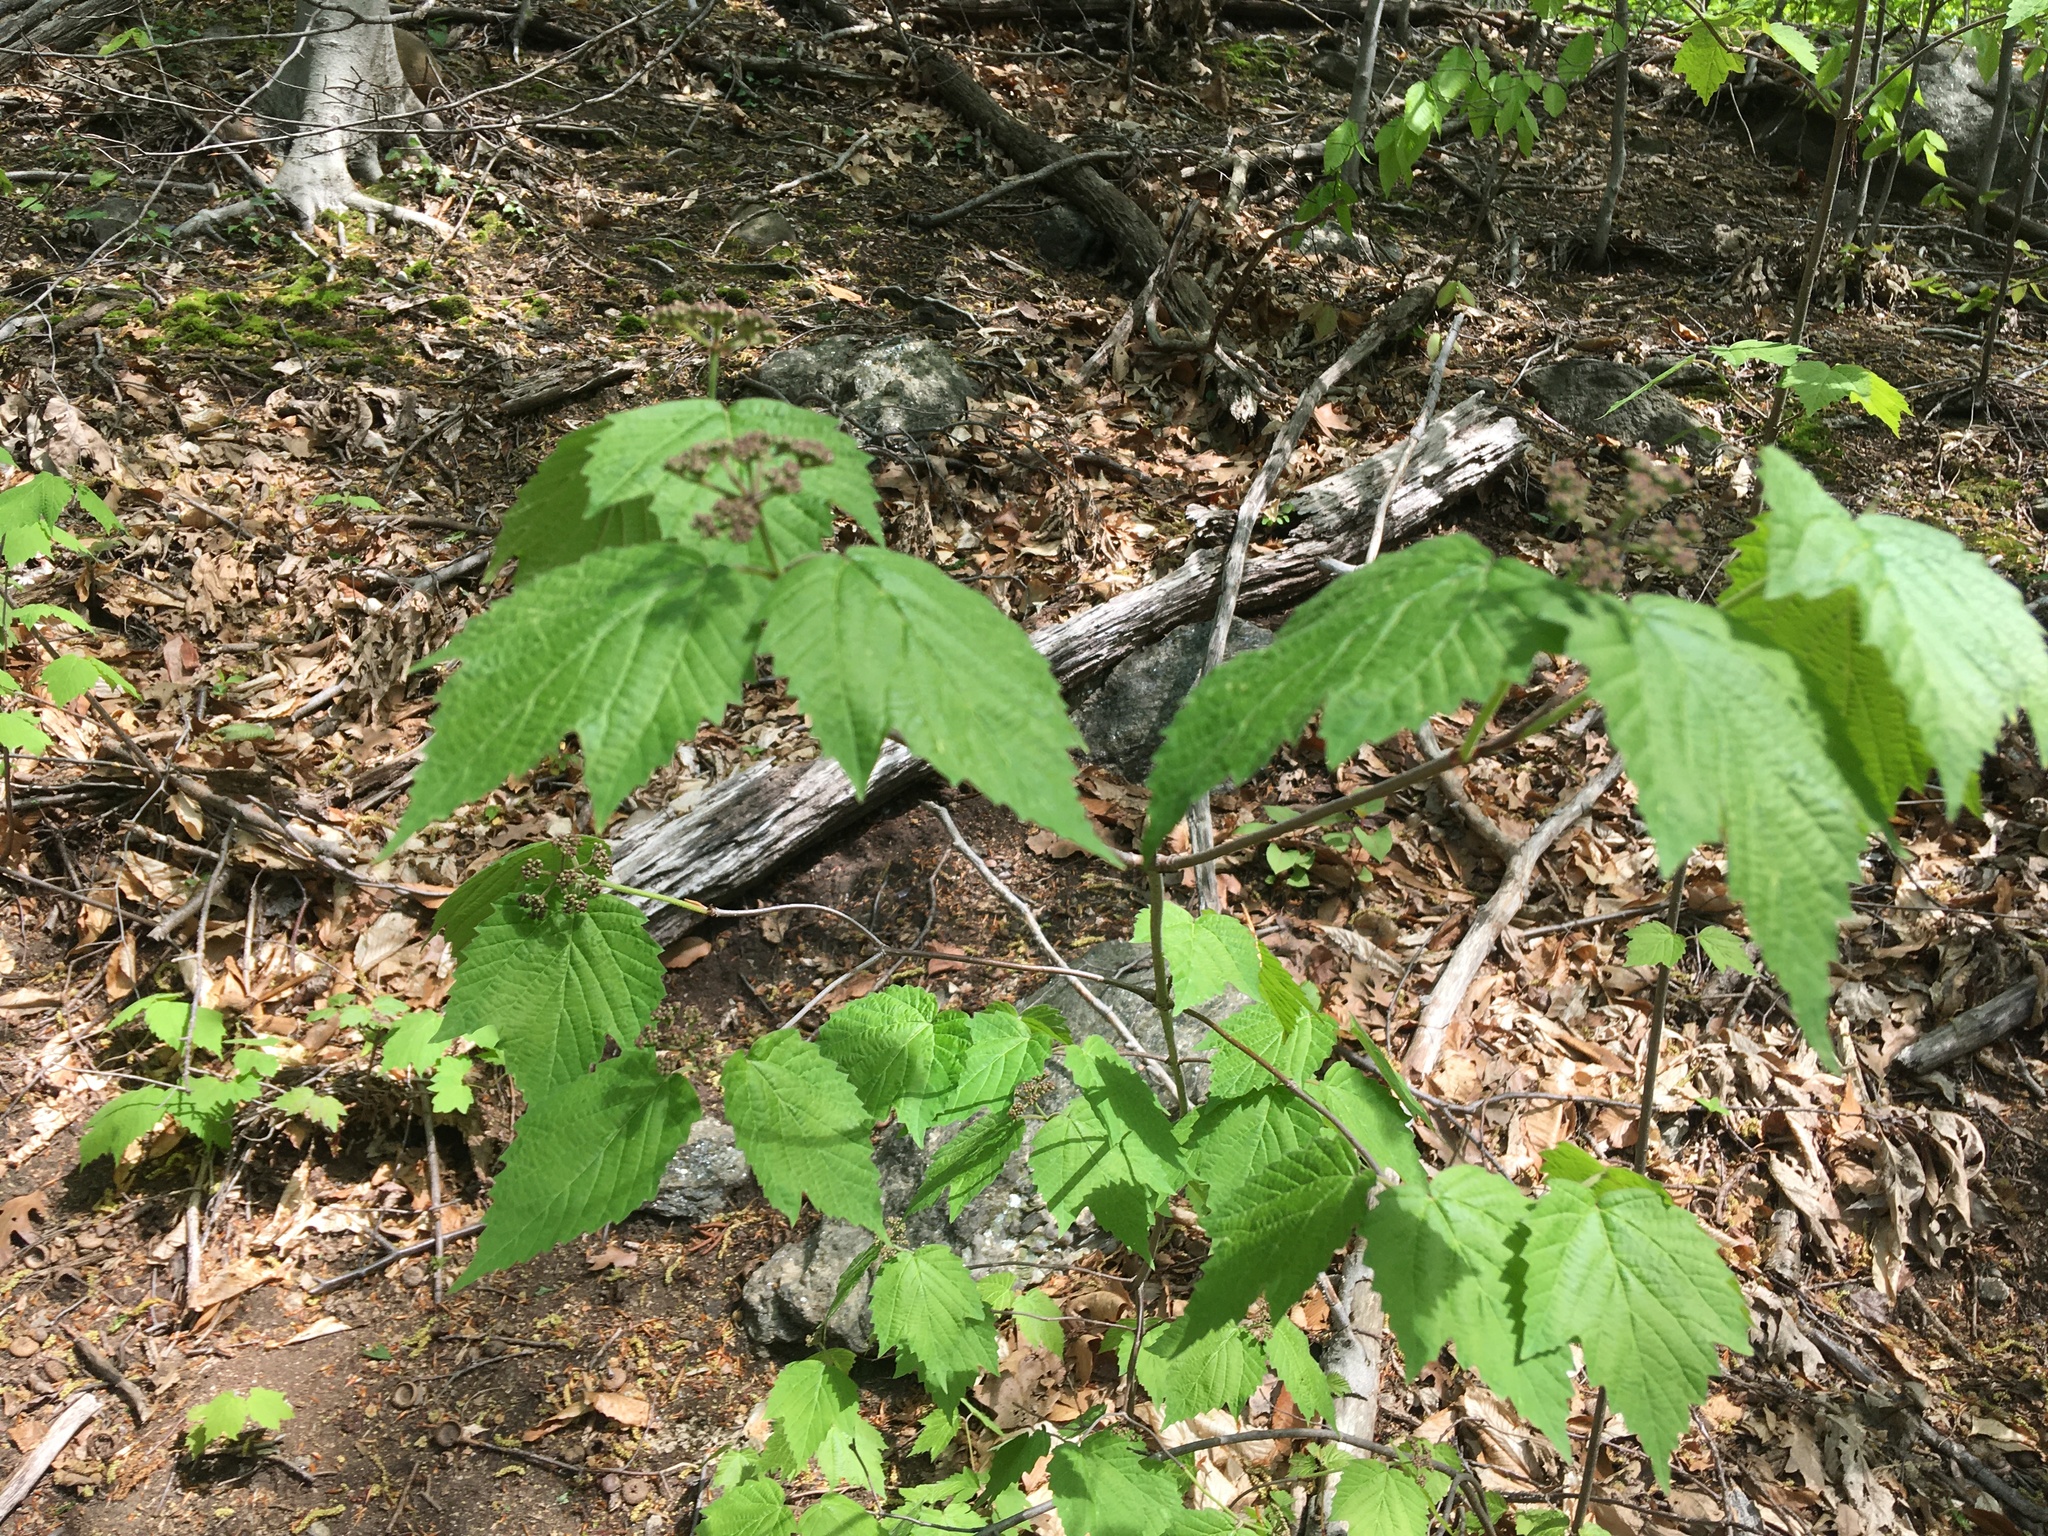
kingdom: Plantae
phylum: Tracheophyta
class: Magnoliopsida
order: Dipsacales
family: Viburnaceae
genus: Viburnum
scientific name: Viburnum acerifolium
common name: Dockmackie
